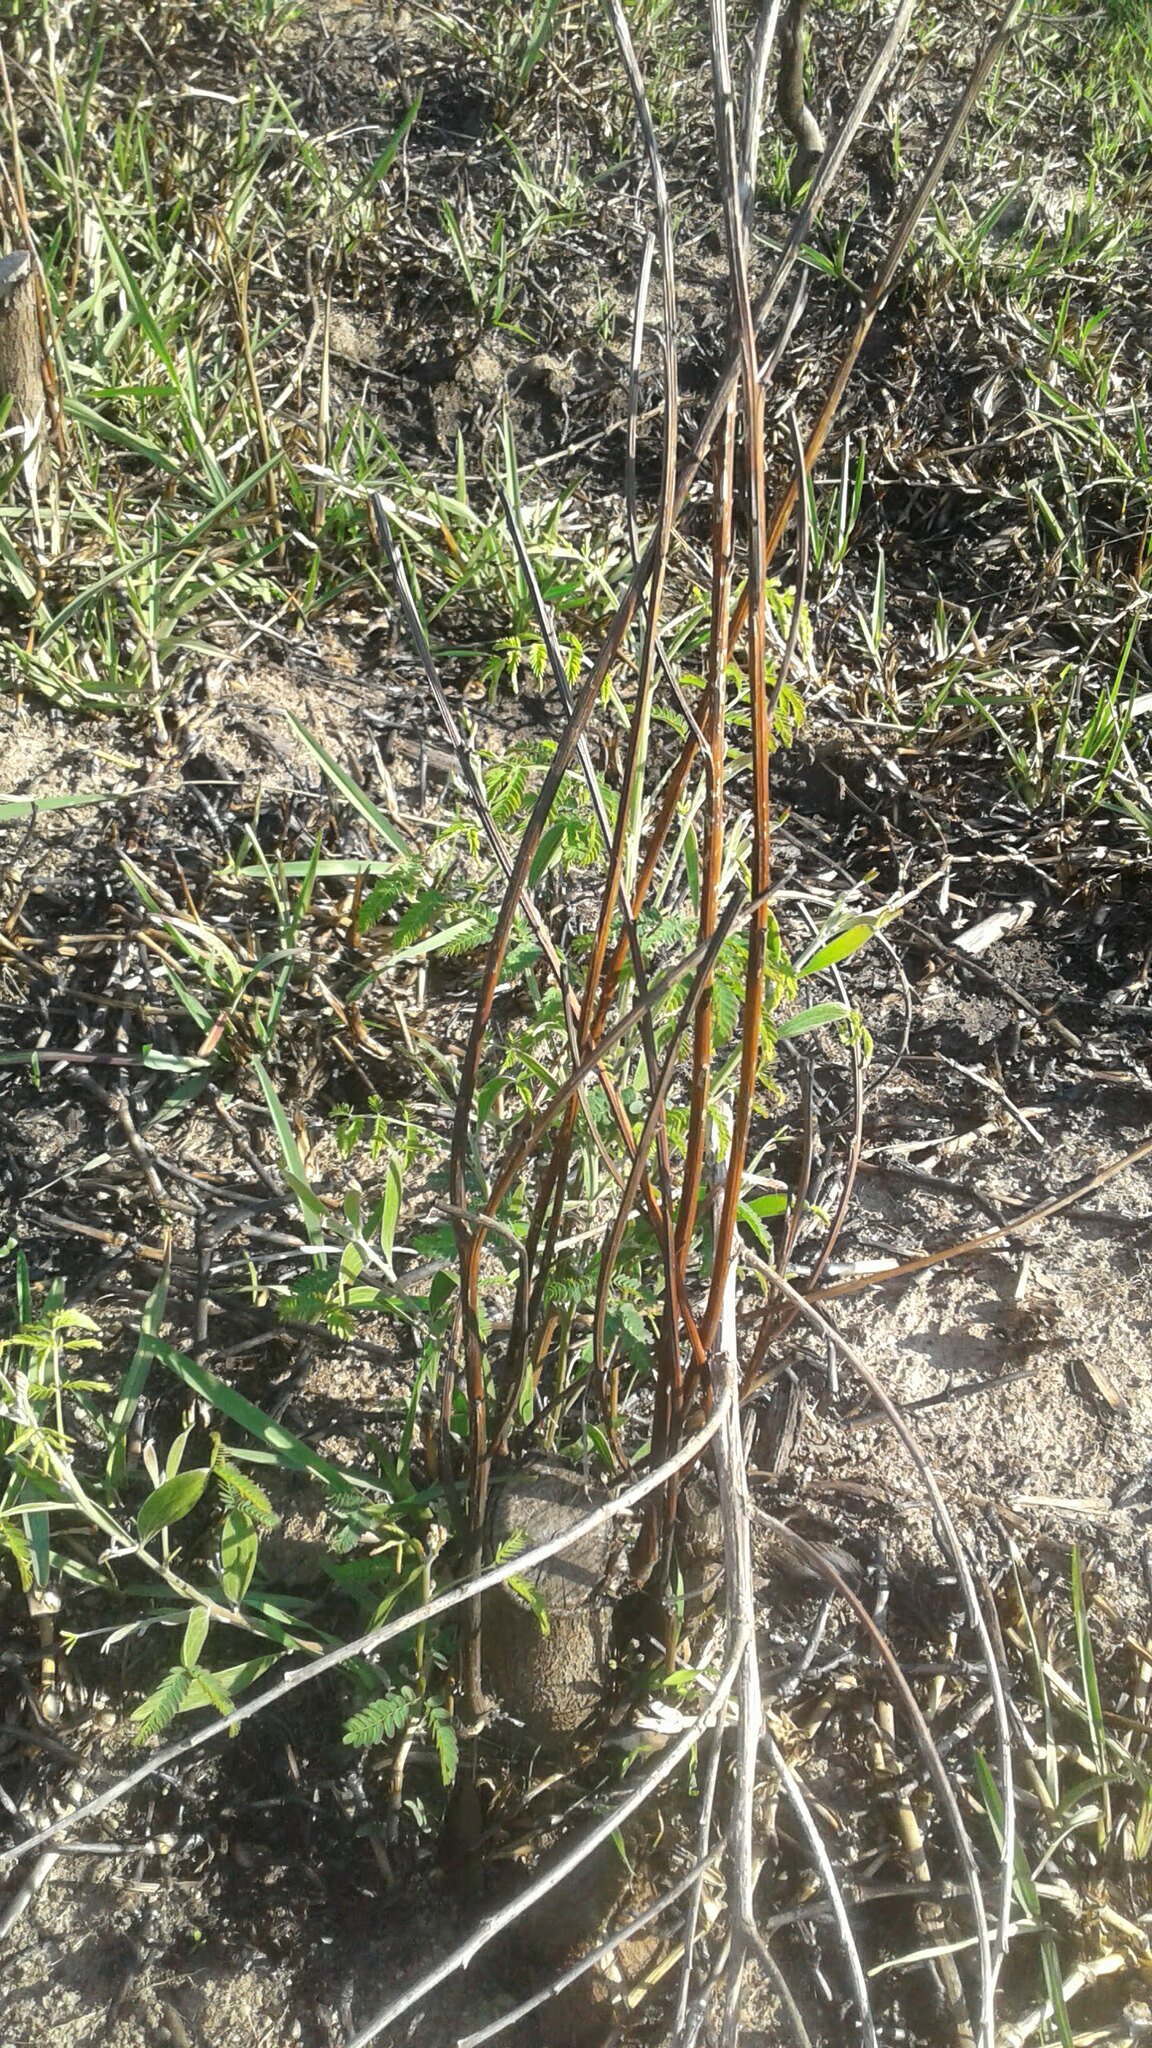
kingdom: Plantae
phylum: Tracheophyta
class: Magnoliopsida
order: Fabales
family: Fabaceae
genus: Acacia
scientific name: Acacia melanoxylon
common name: Blackwood
